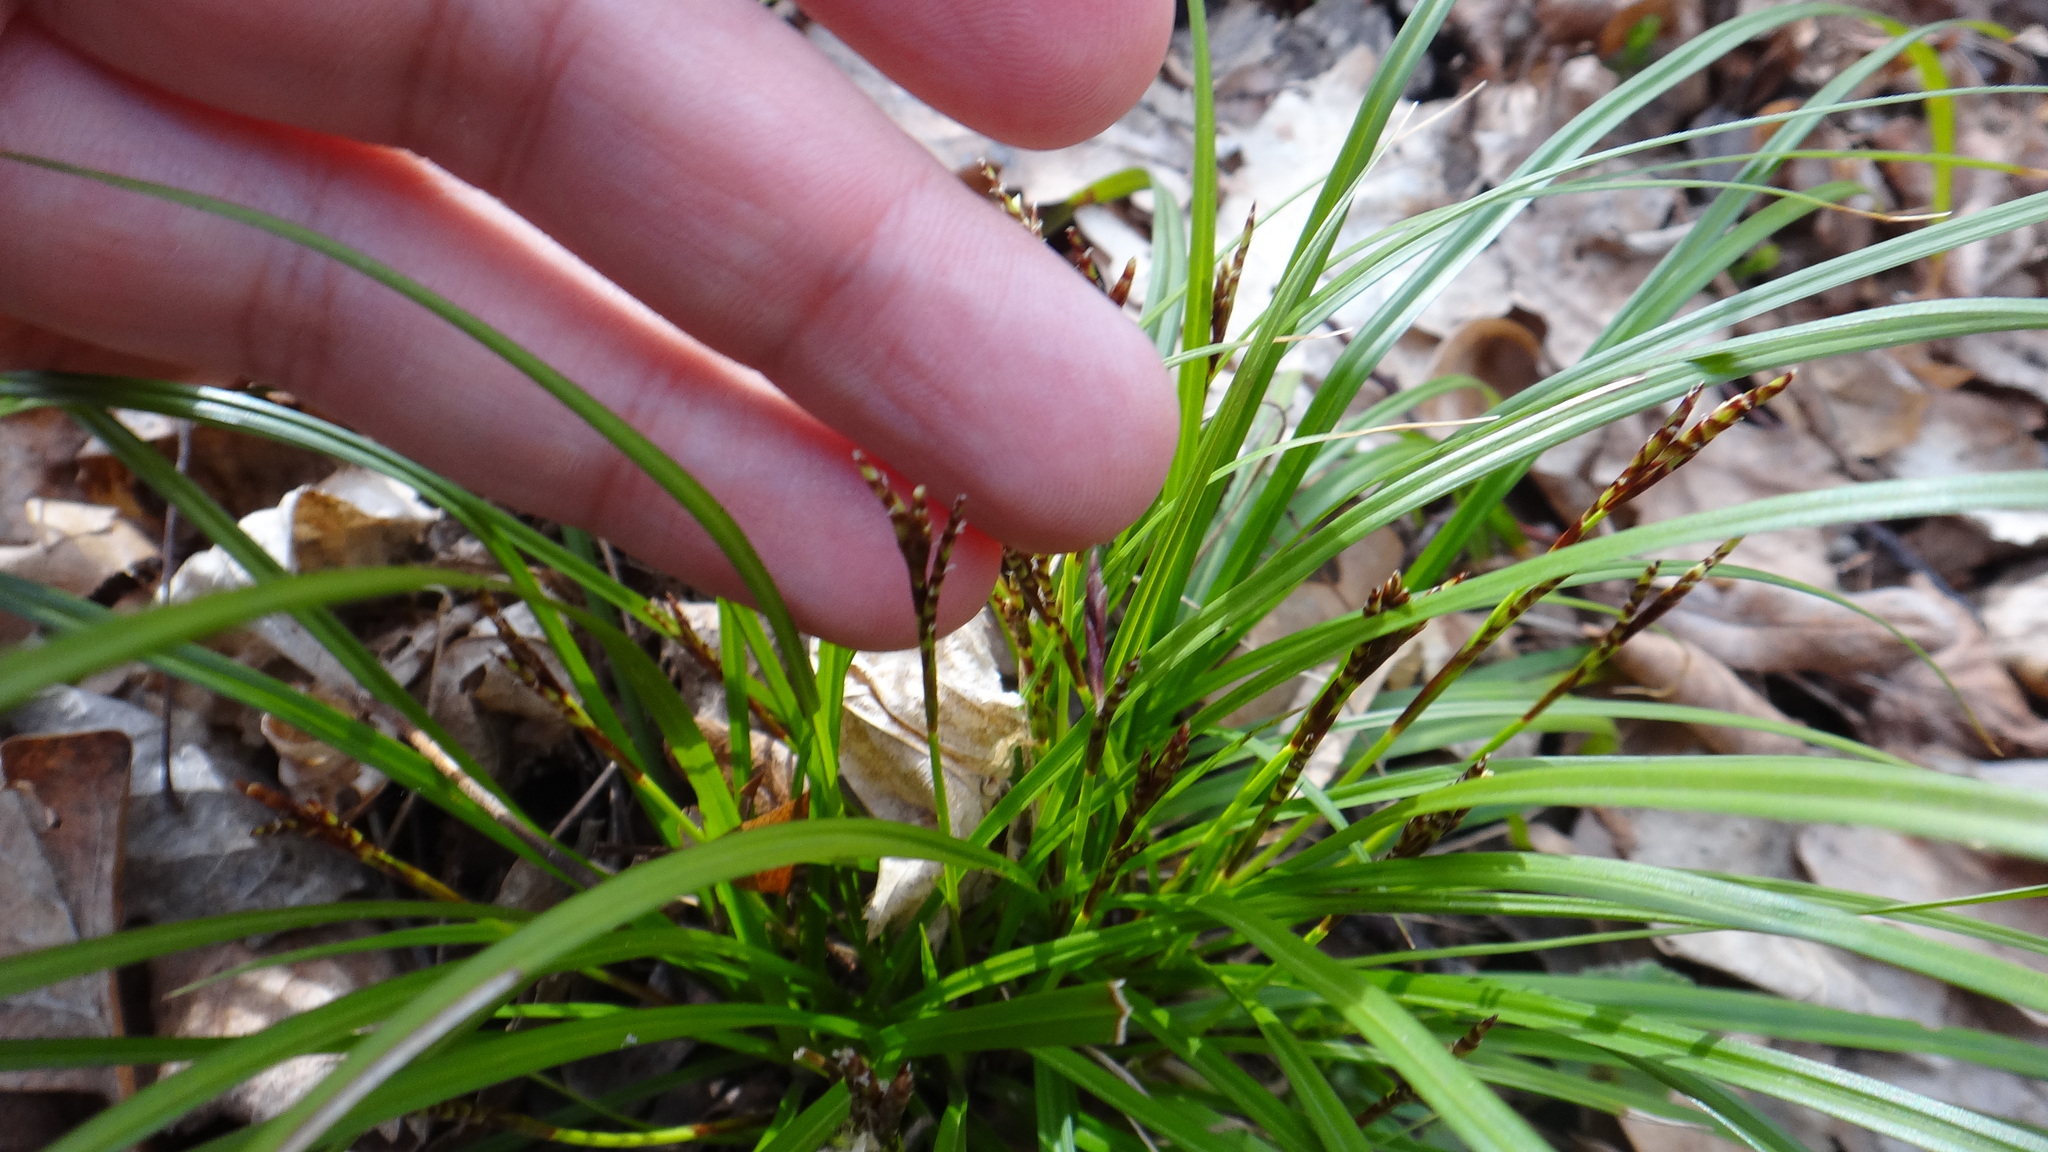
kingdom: Plantae
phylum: Tracheophyta
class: Liliopsida
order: Poales
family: Cyperaceae
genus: Carex
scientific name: Carex digitata
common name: Fingered sedge
